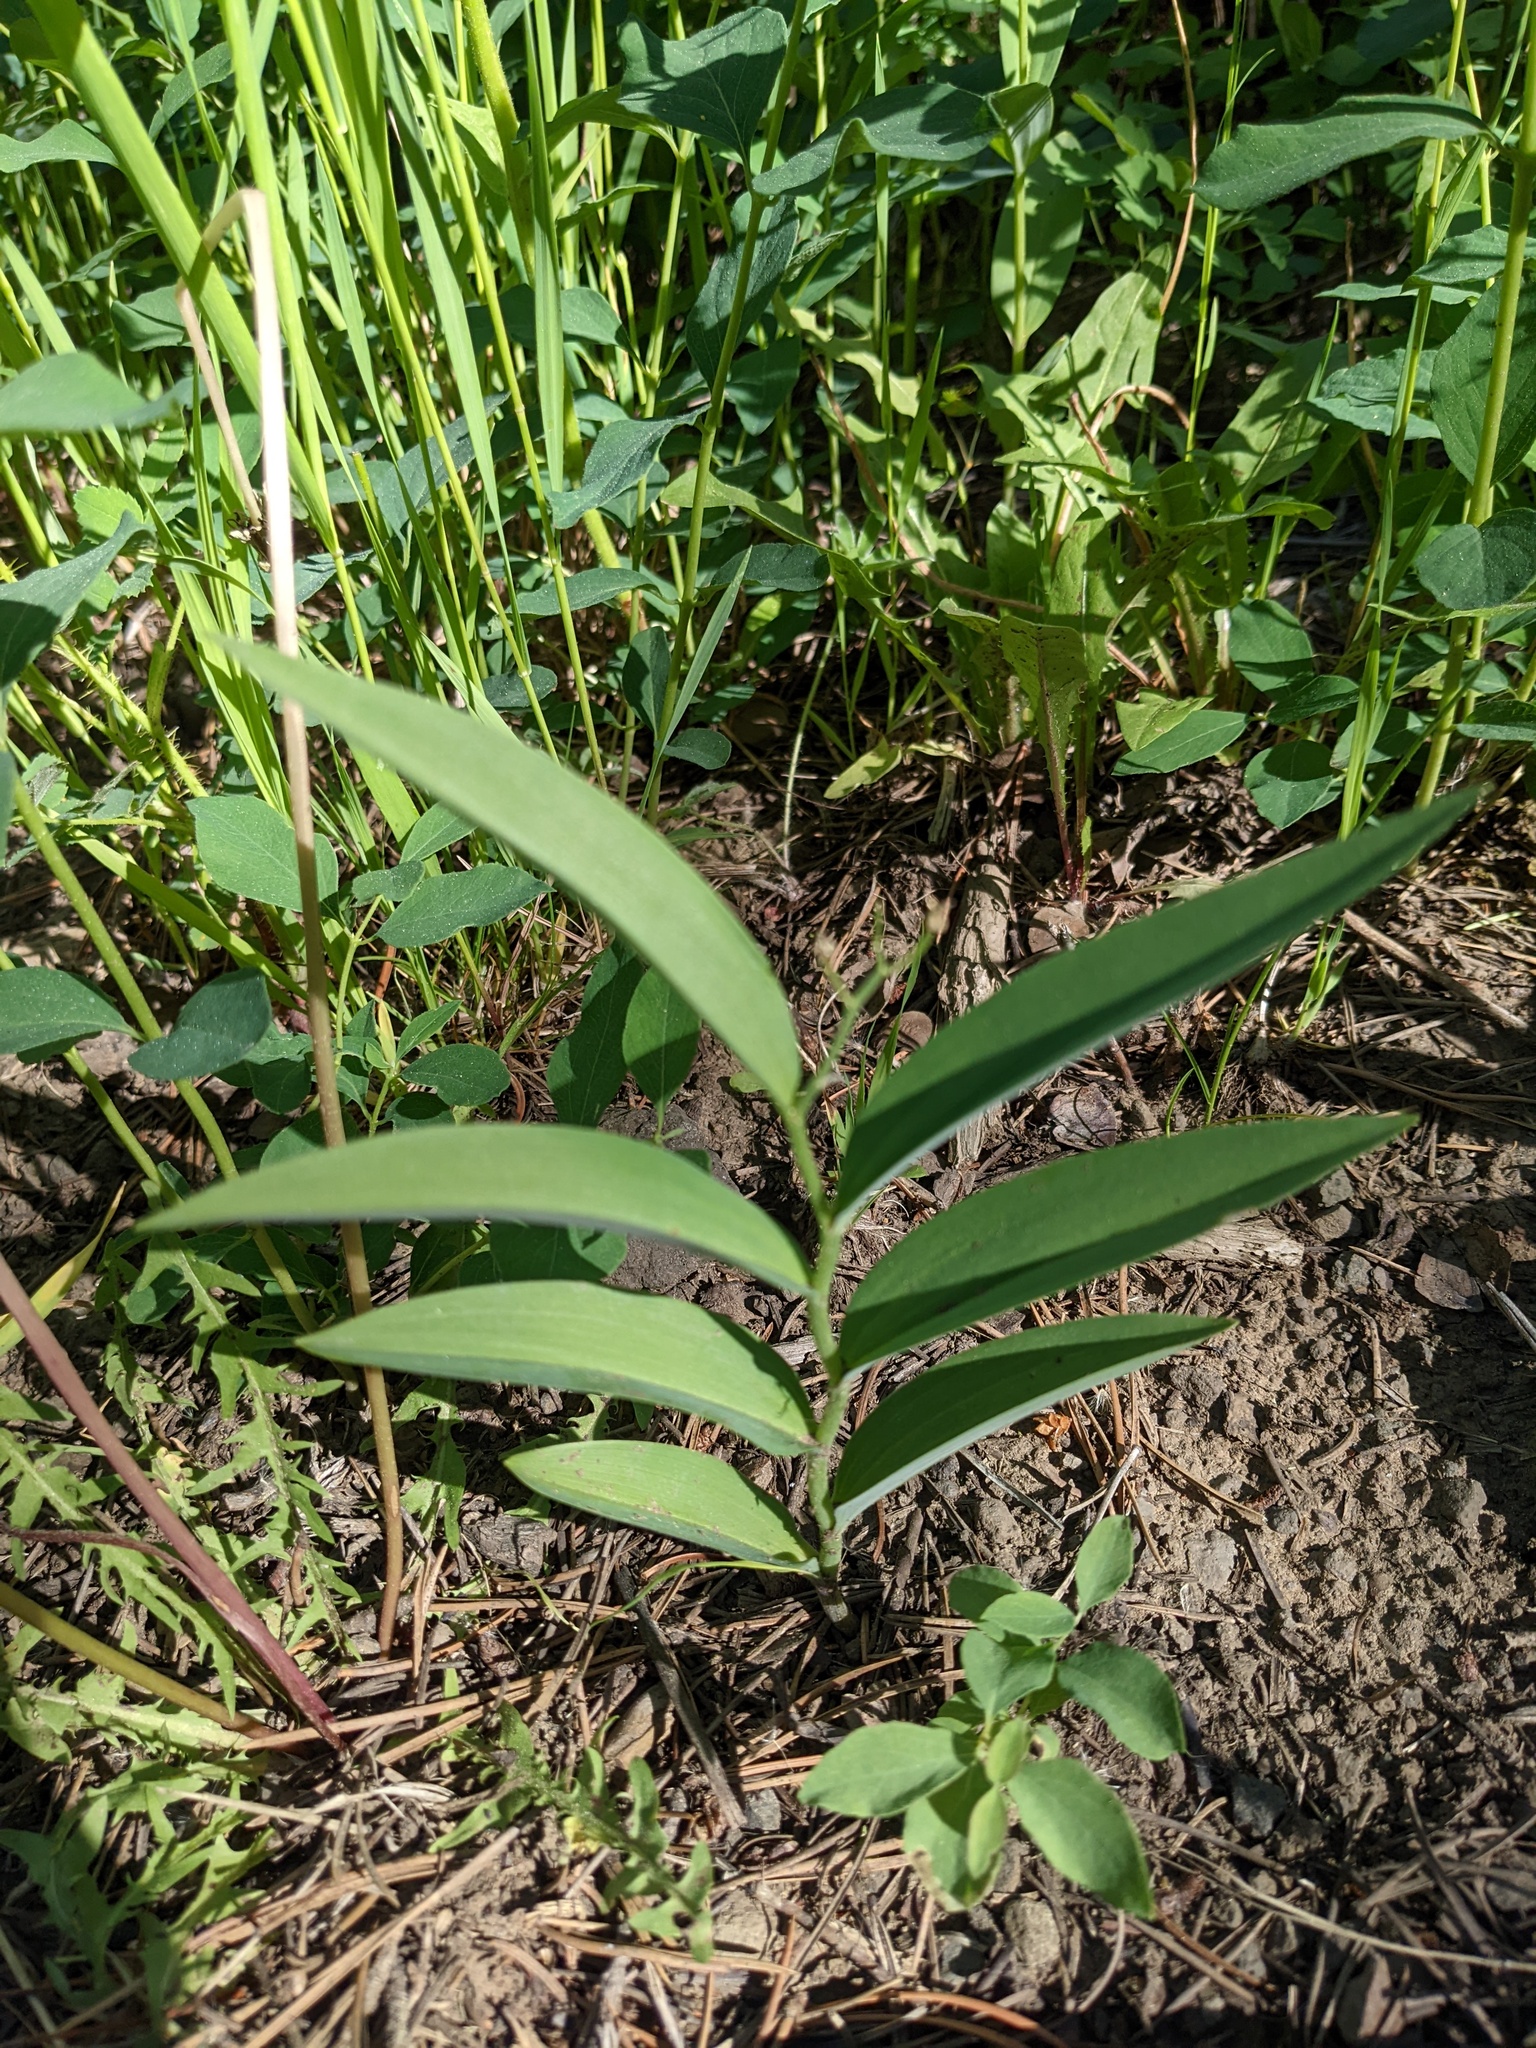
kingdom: Plantae
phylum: Tracheophyta
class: Liliopsida
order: Asparagales
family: Asparagaceae
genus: Maianthemum
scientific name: Maianthemum stellatum
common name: Little false solomon's seal
